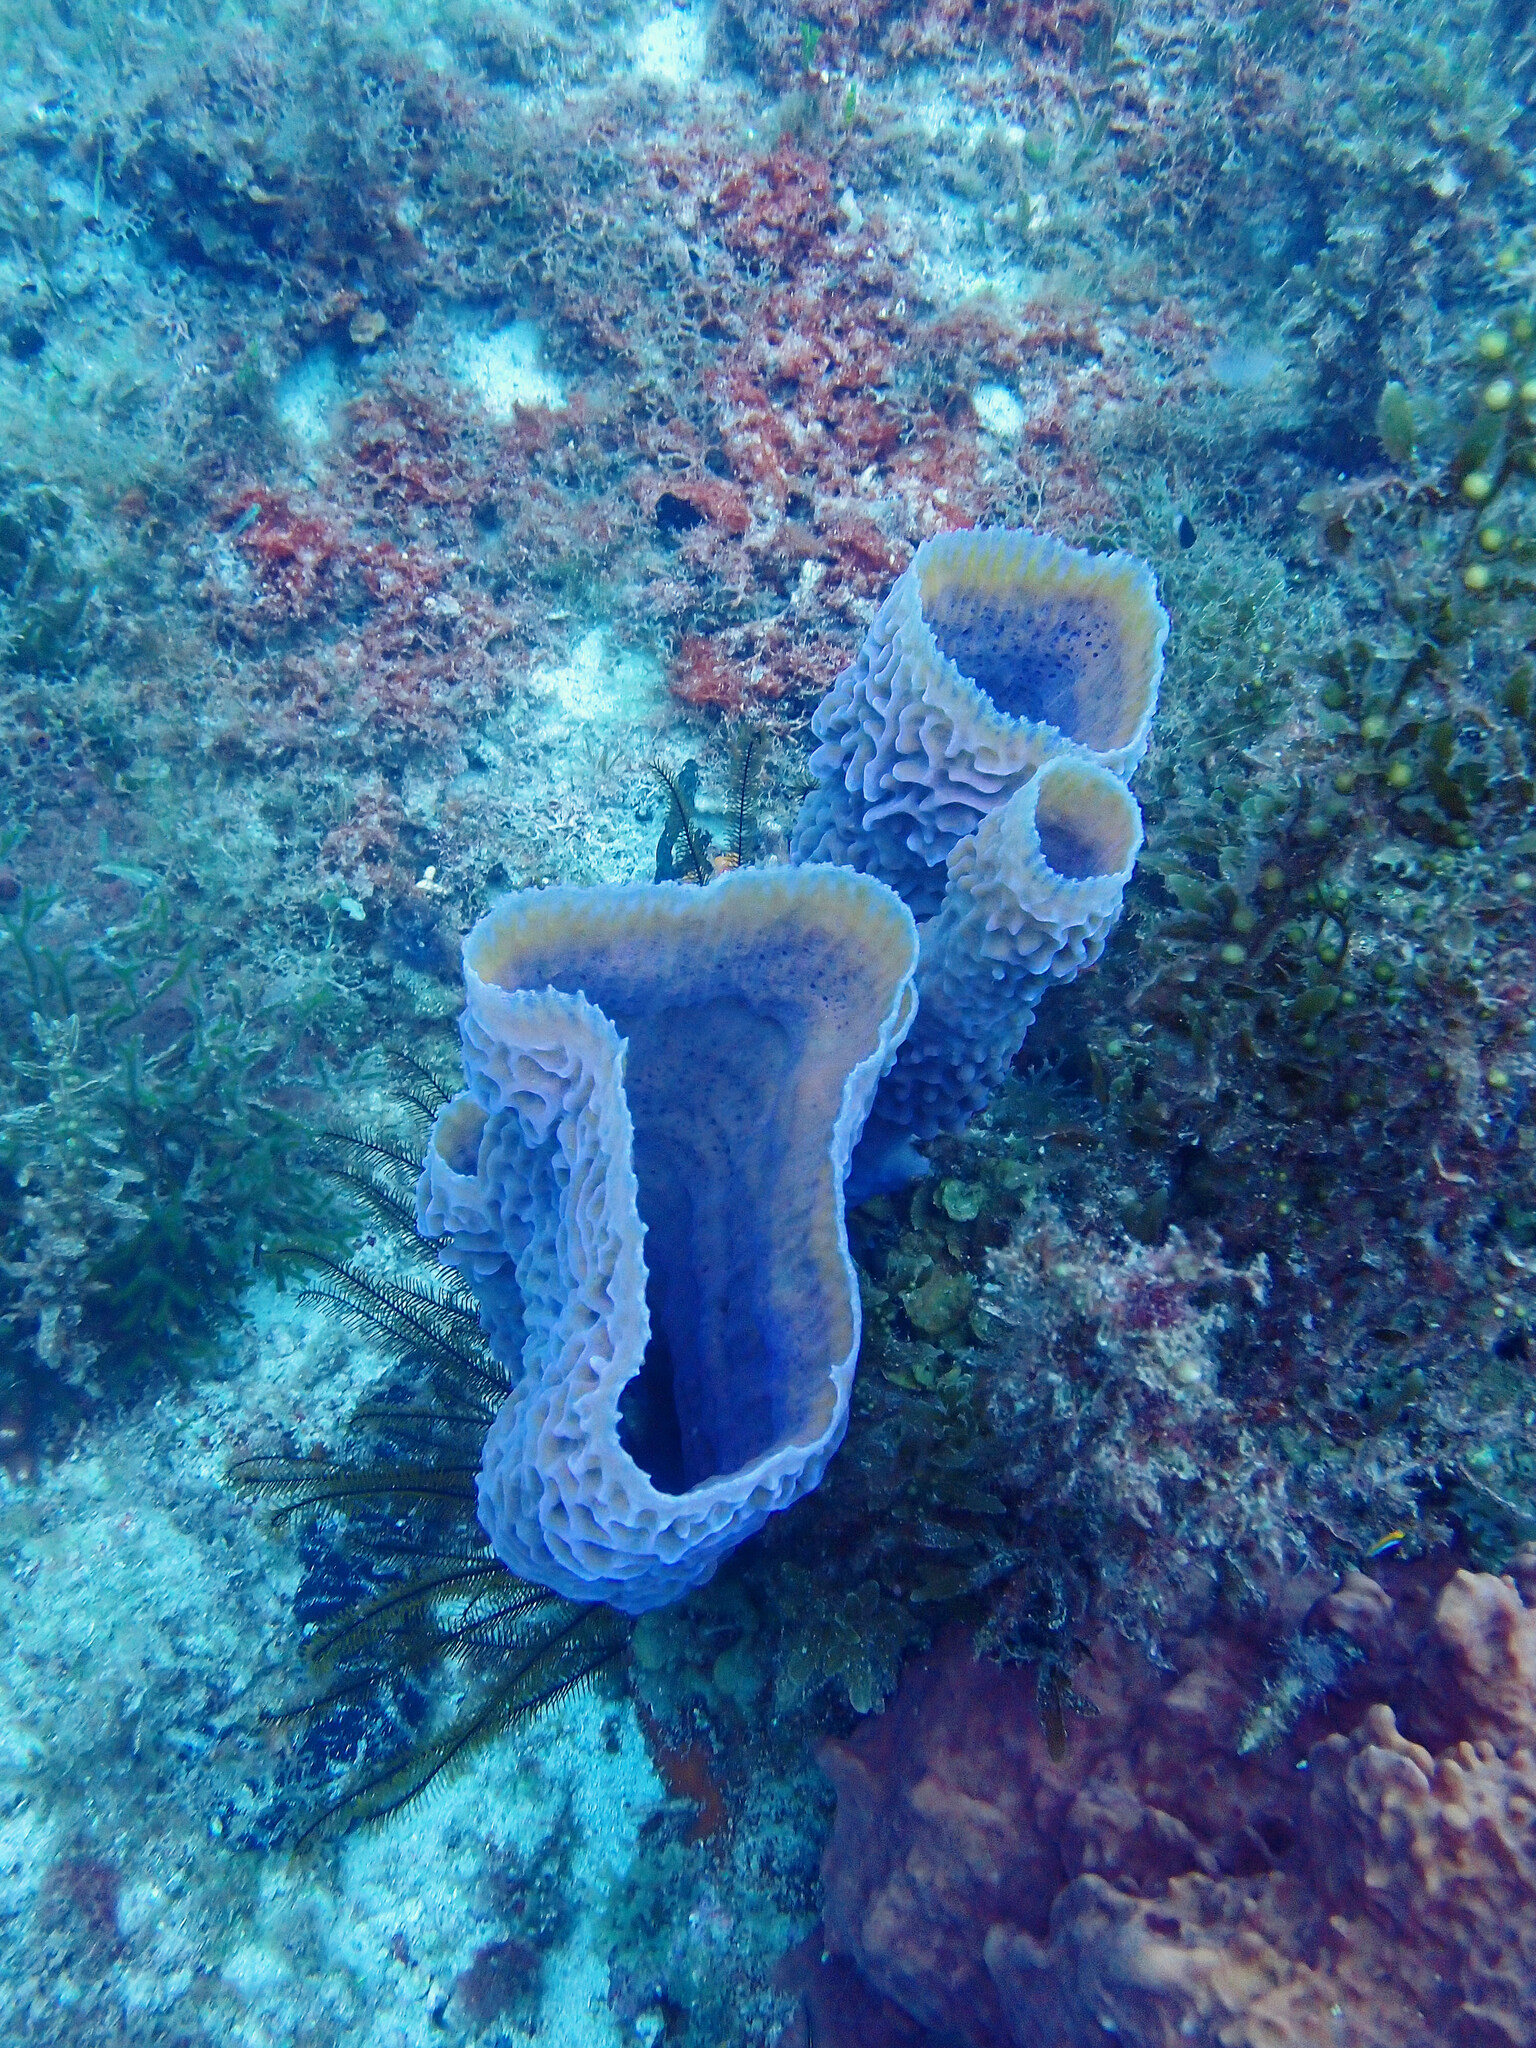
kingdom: Animalia
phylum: Porifera
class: Demospongiae
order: Haplosclerida
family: Callyspongiidae
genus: Callyspongia
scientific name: Callyspongia plicifera
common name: Azure vase sponge
